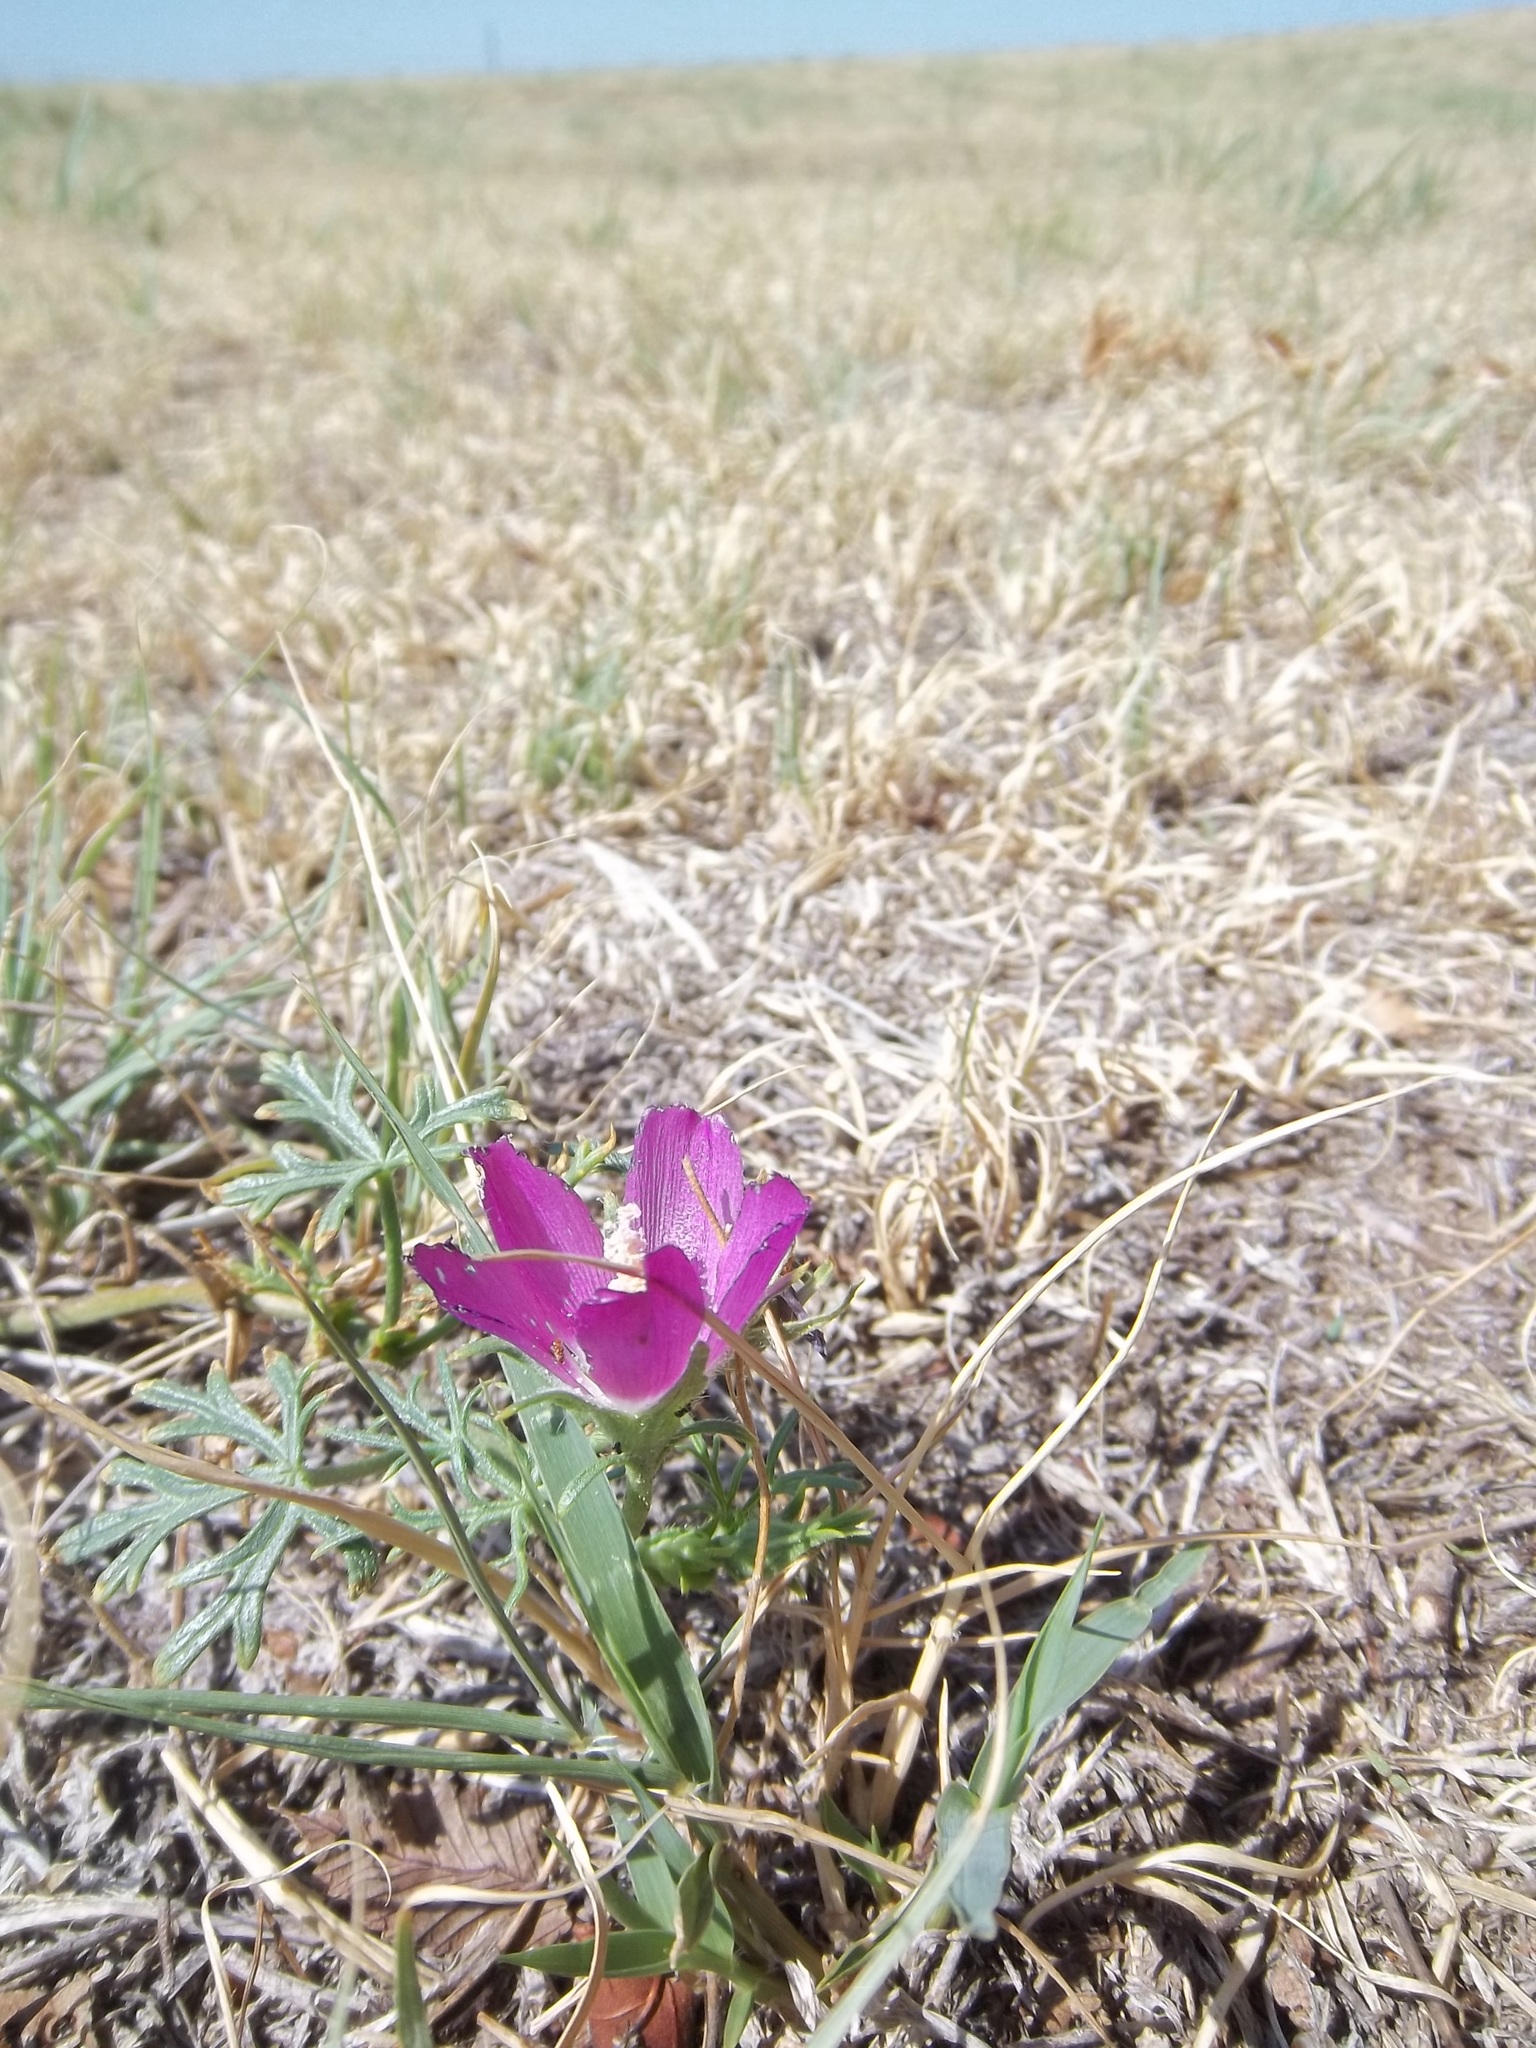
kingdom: Plantae
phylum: Tracheophyta
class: Magnoliopsida
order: Malvales
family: Malvaceae
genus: Callirhoe
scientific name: Callirhoe involucrata
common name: Purple poppy-mallow
